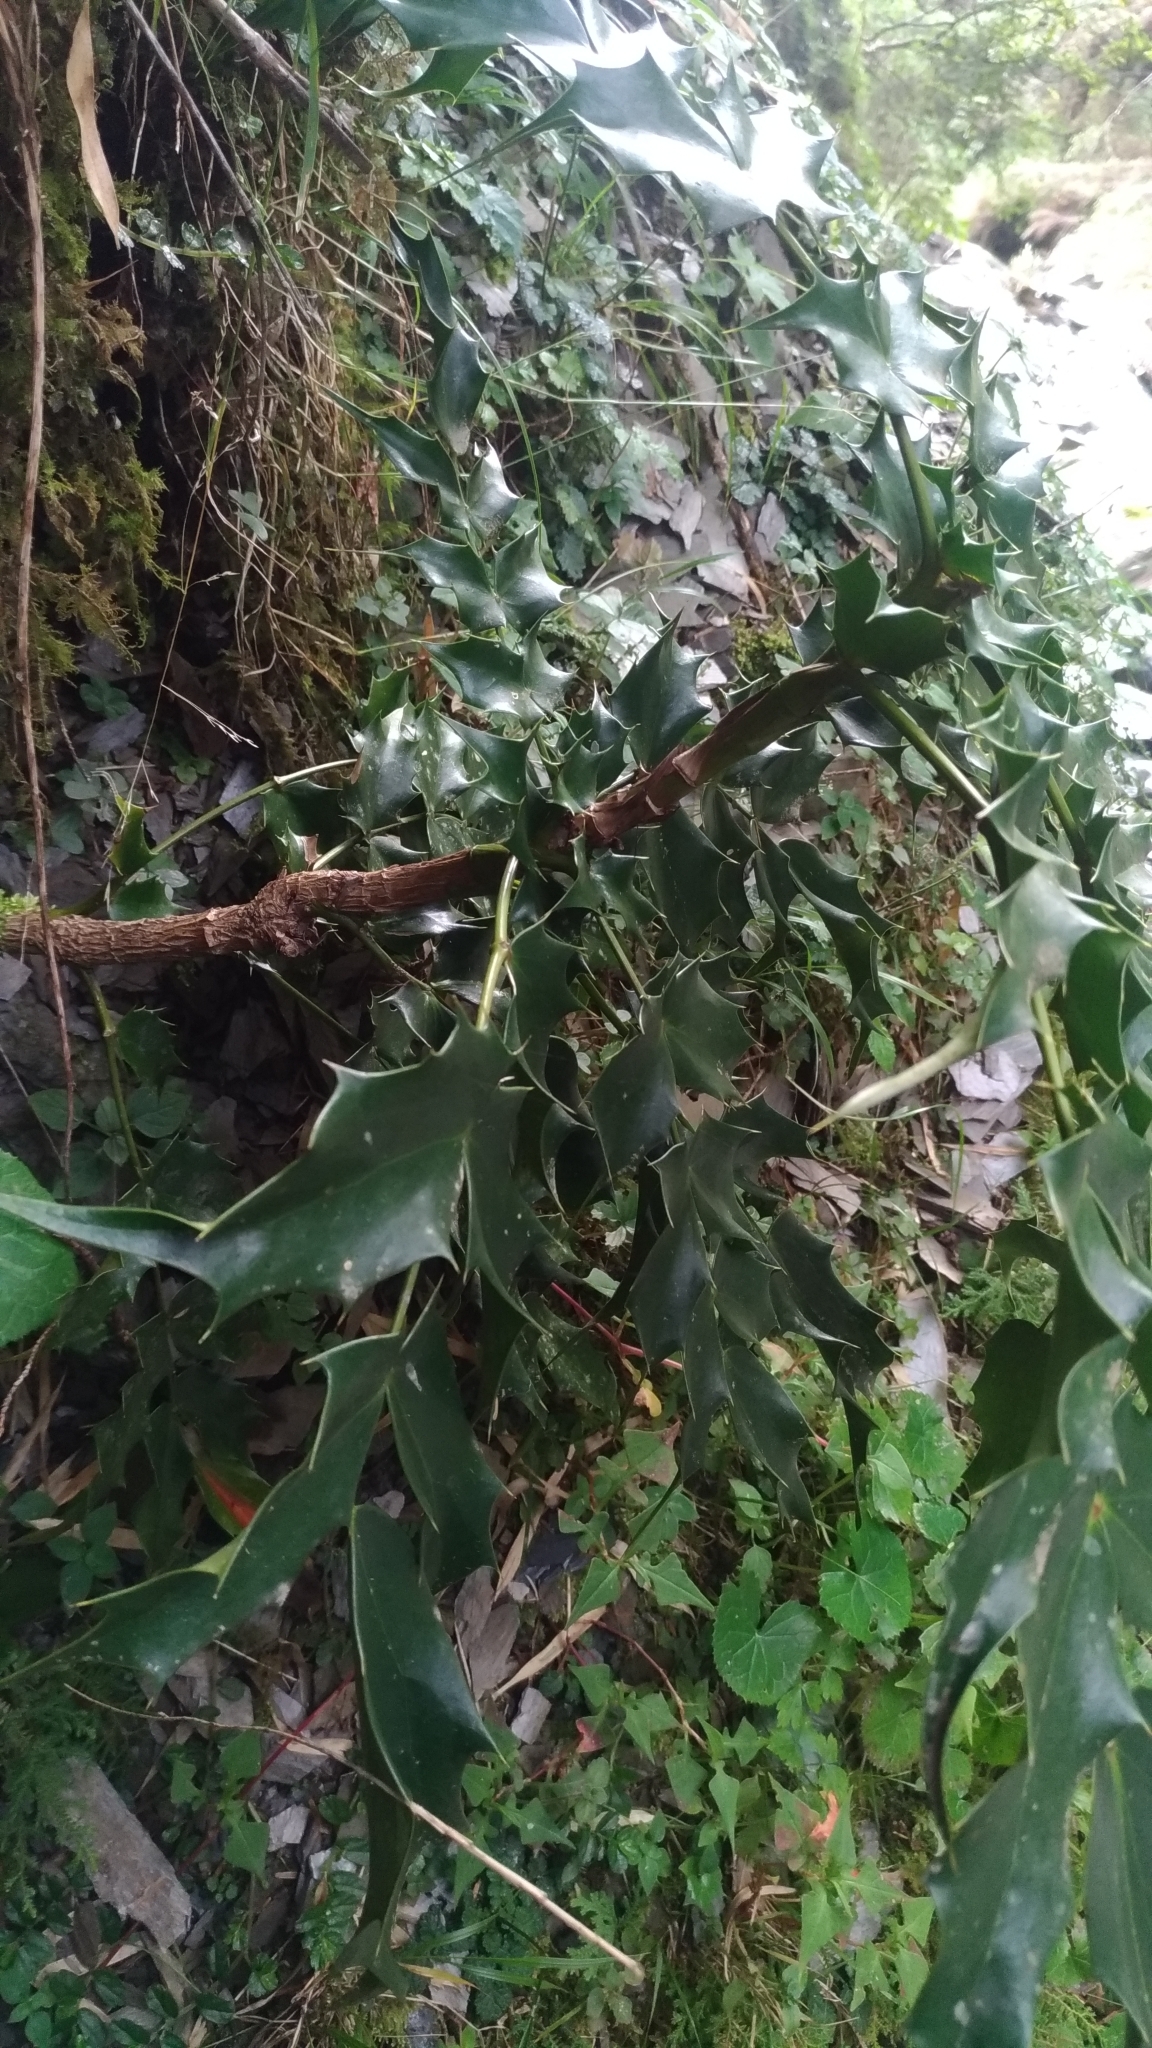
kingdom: Plantae
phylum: Tracheophyta
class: Magnoliopsida
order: Ranunculales
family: Berberidaceae
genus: Mahonia
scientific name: Mahonia oiwakensis
